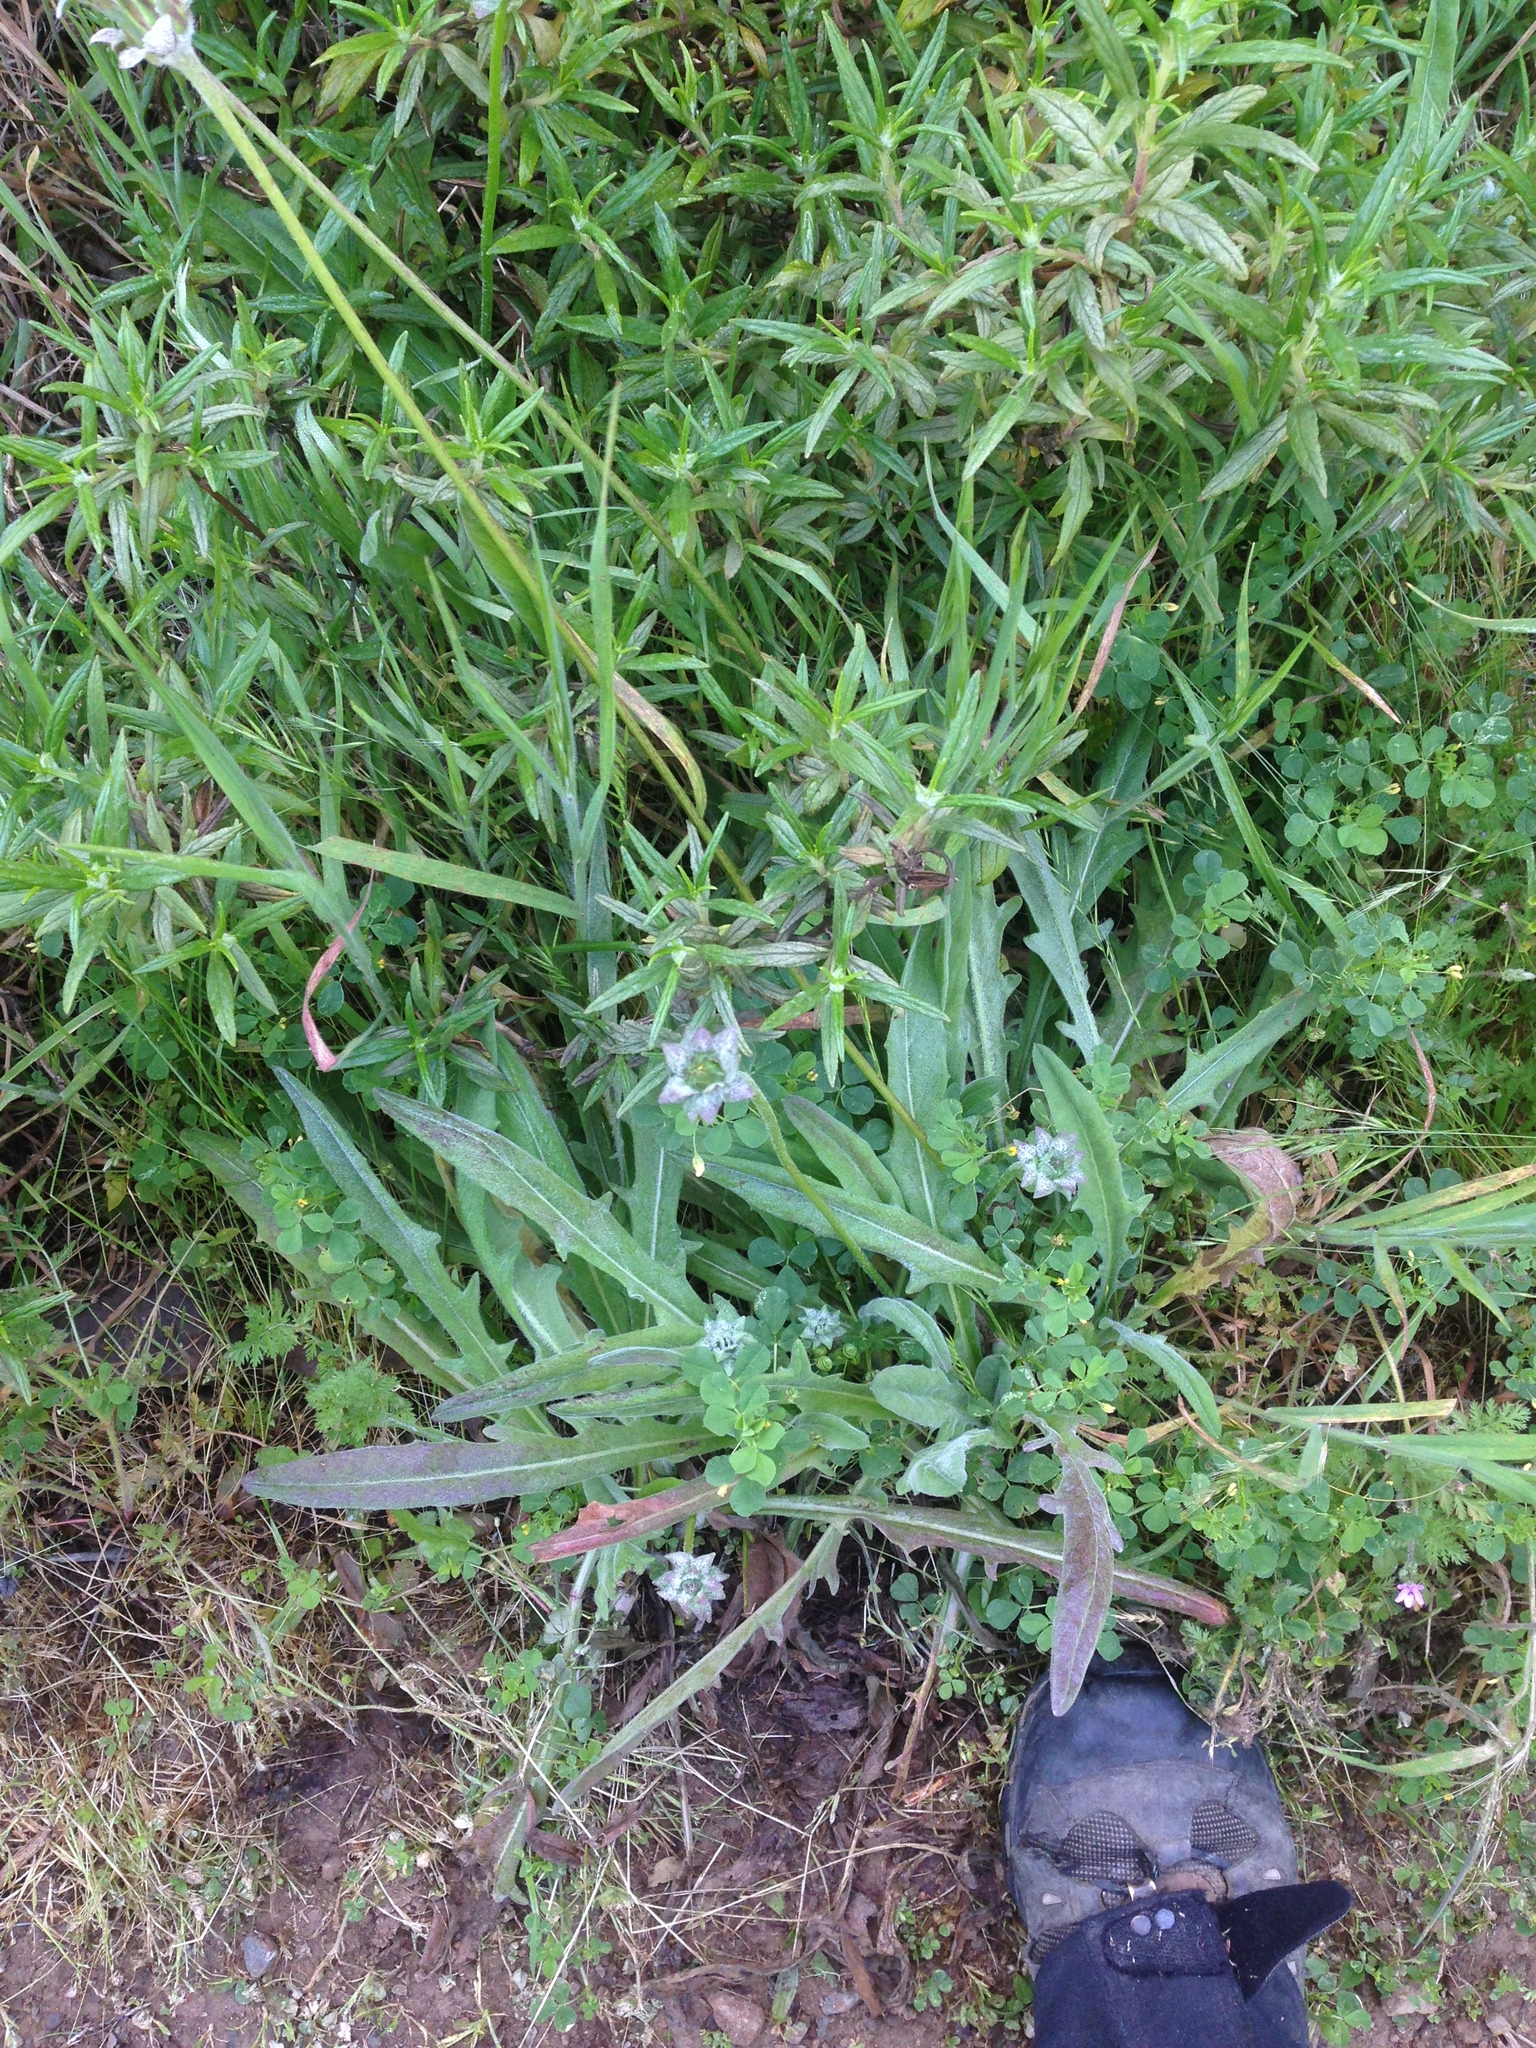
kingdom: Plantae
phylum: Tracheophyta
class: Magnoliopsida
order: Asterales
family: Asteraceae
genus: Agoseris
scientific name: Agoseris grandiflora
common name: Grassland agoseris
